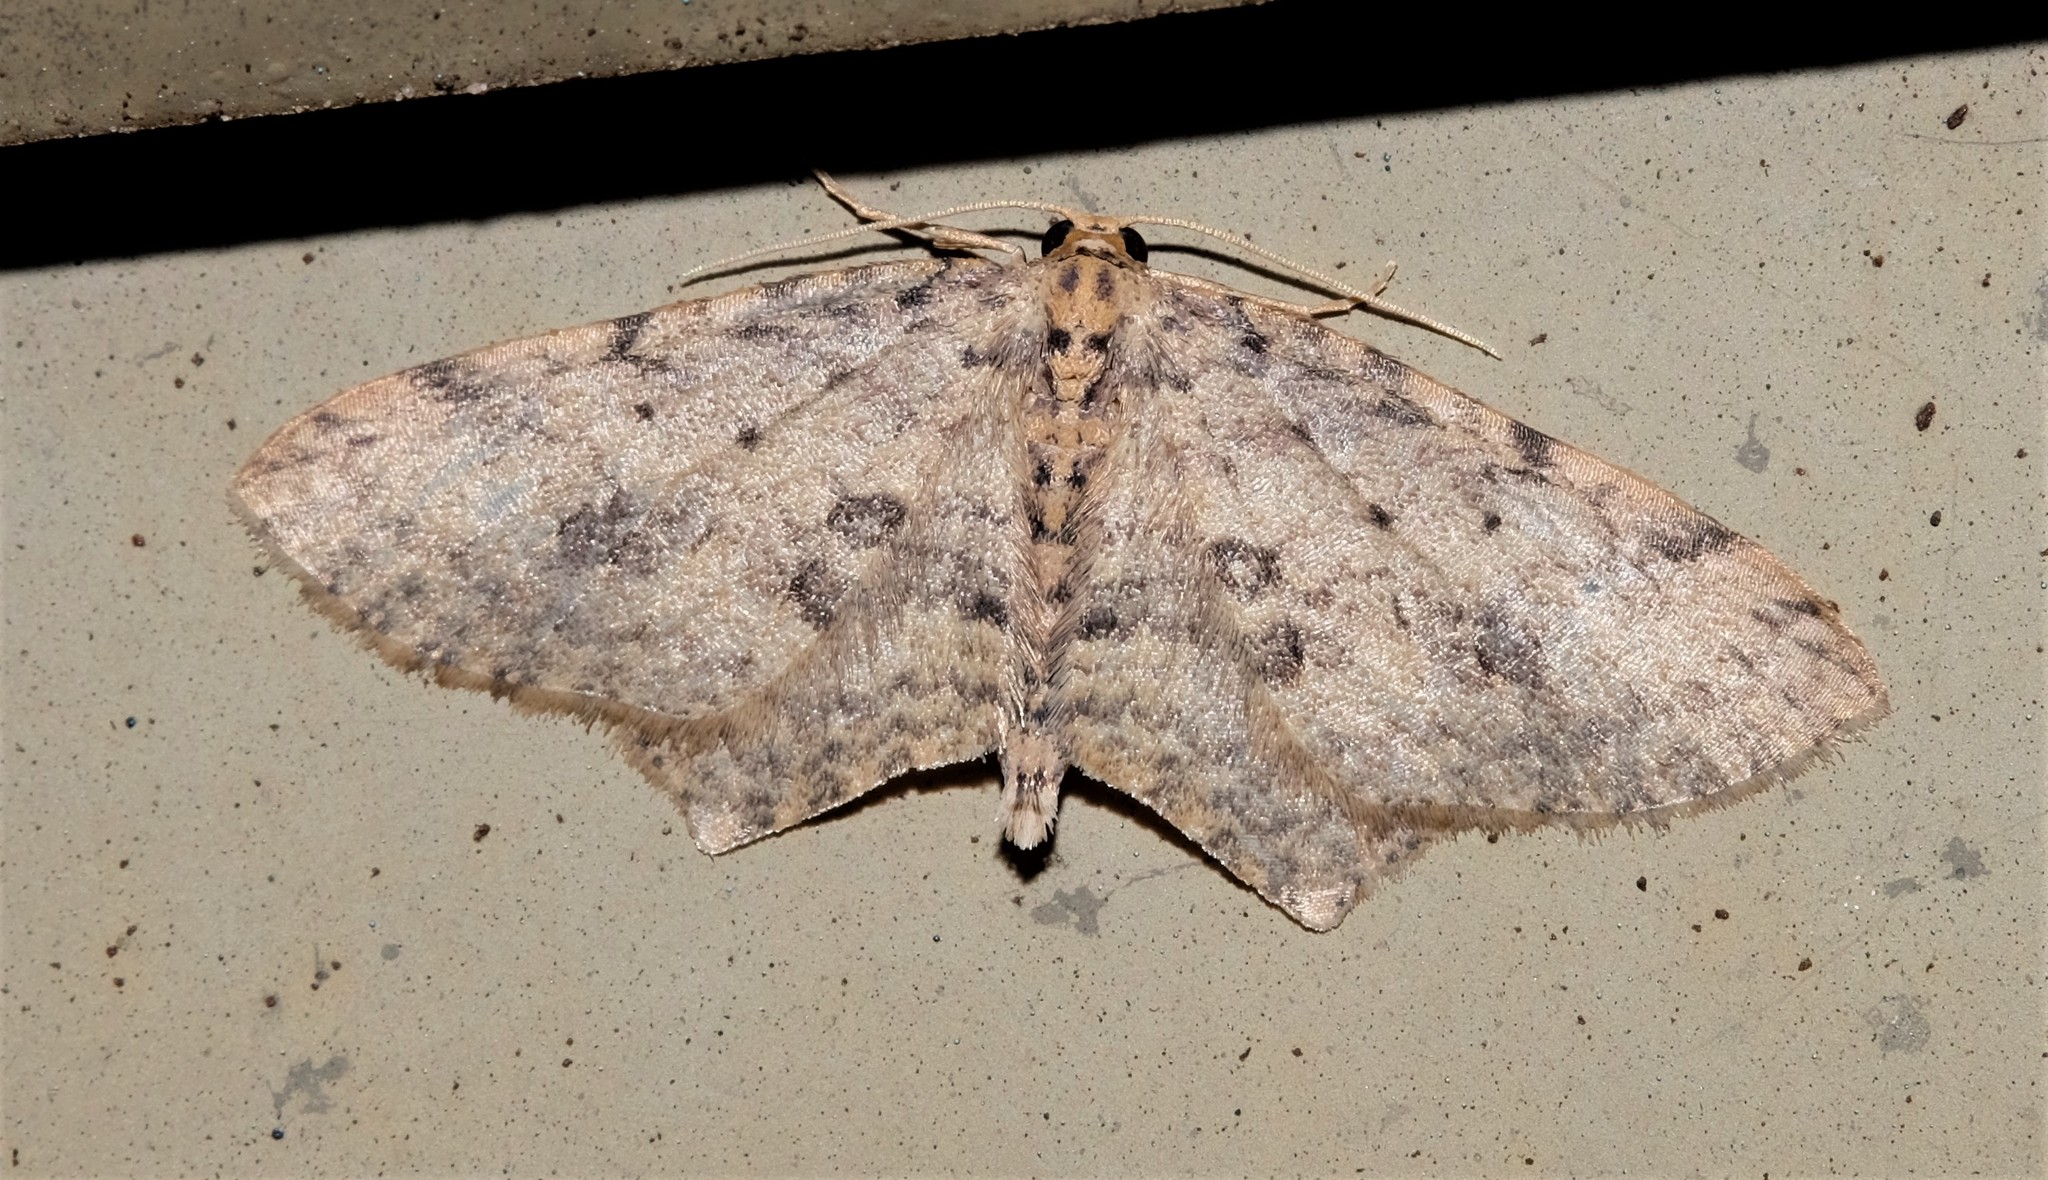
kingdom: Animalia
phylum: Arthropoda
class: Insecta
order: Lepidoptera
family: Geometridae
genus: Poecilasthena
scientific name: Poecilasthena scoliota
